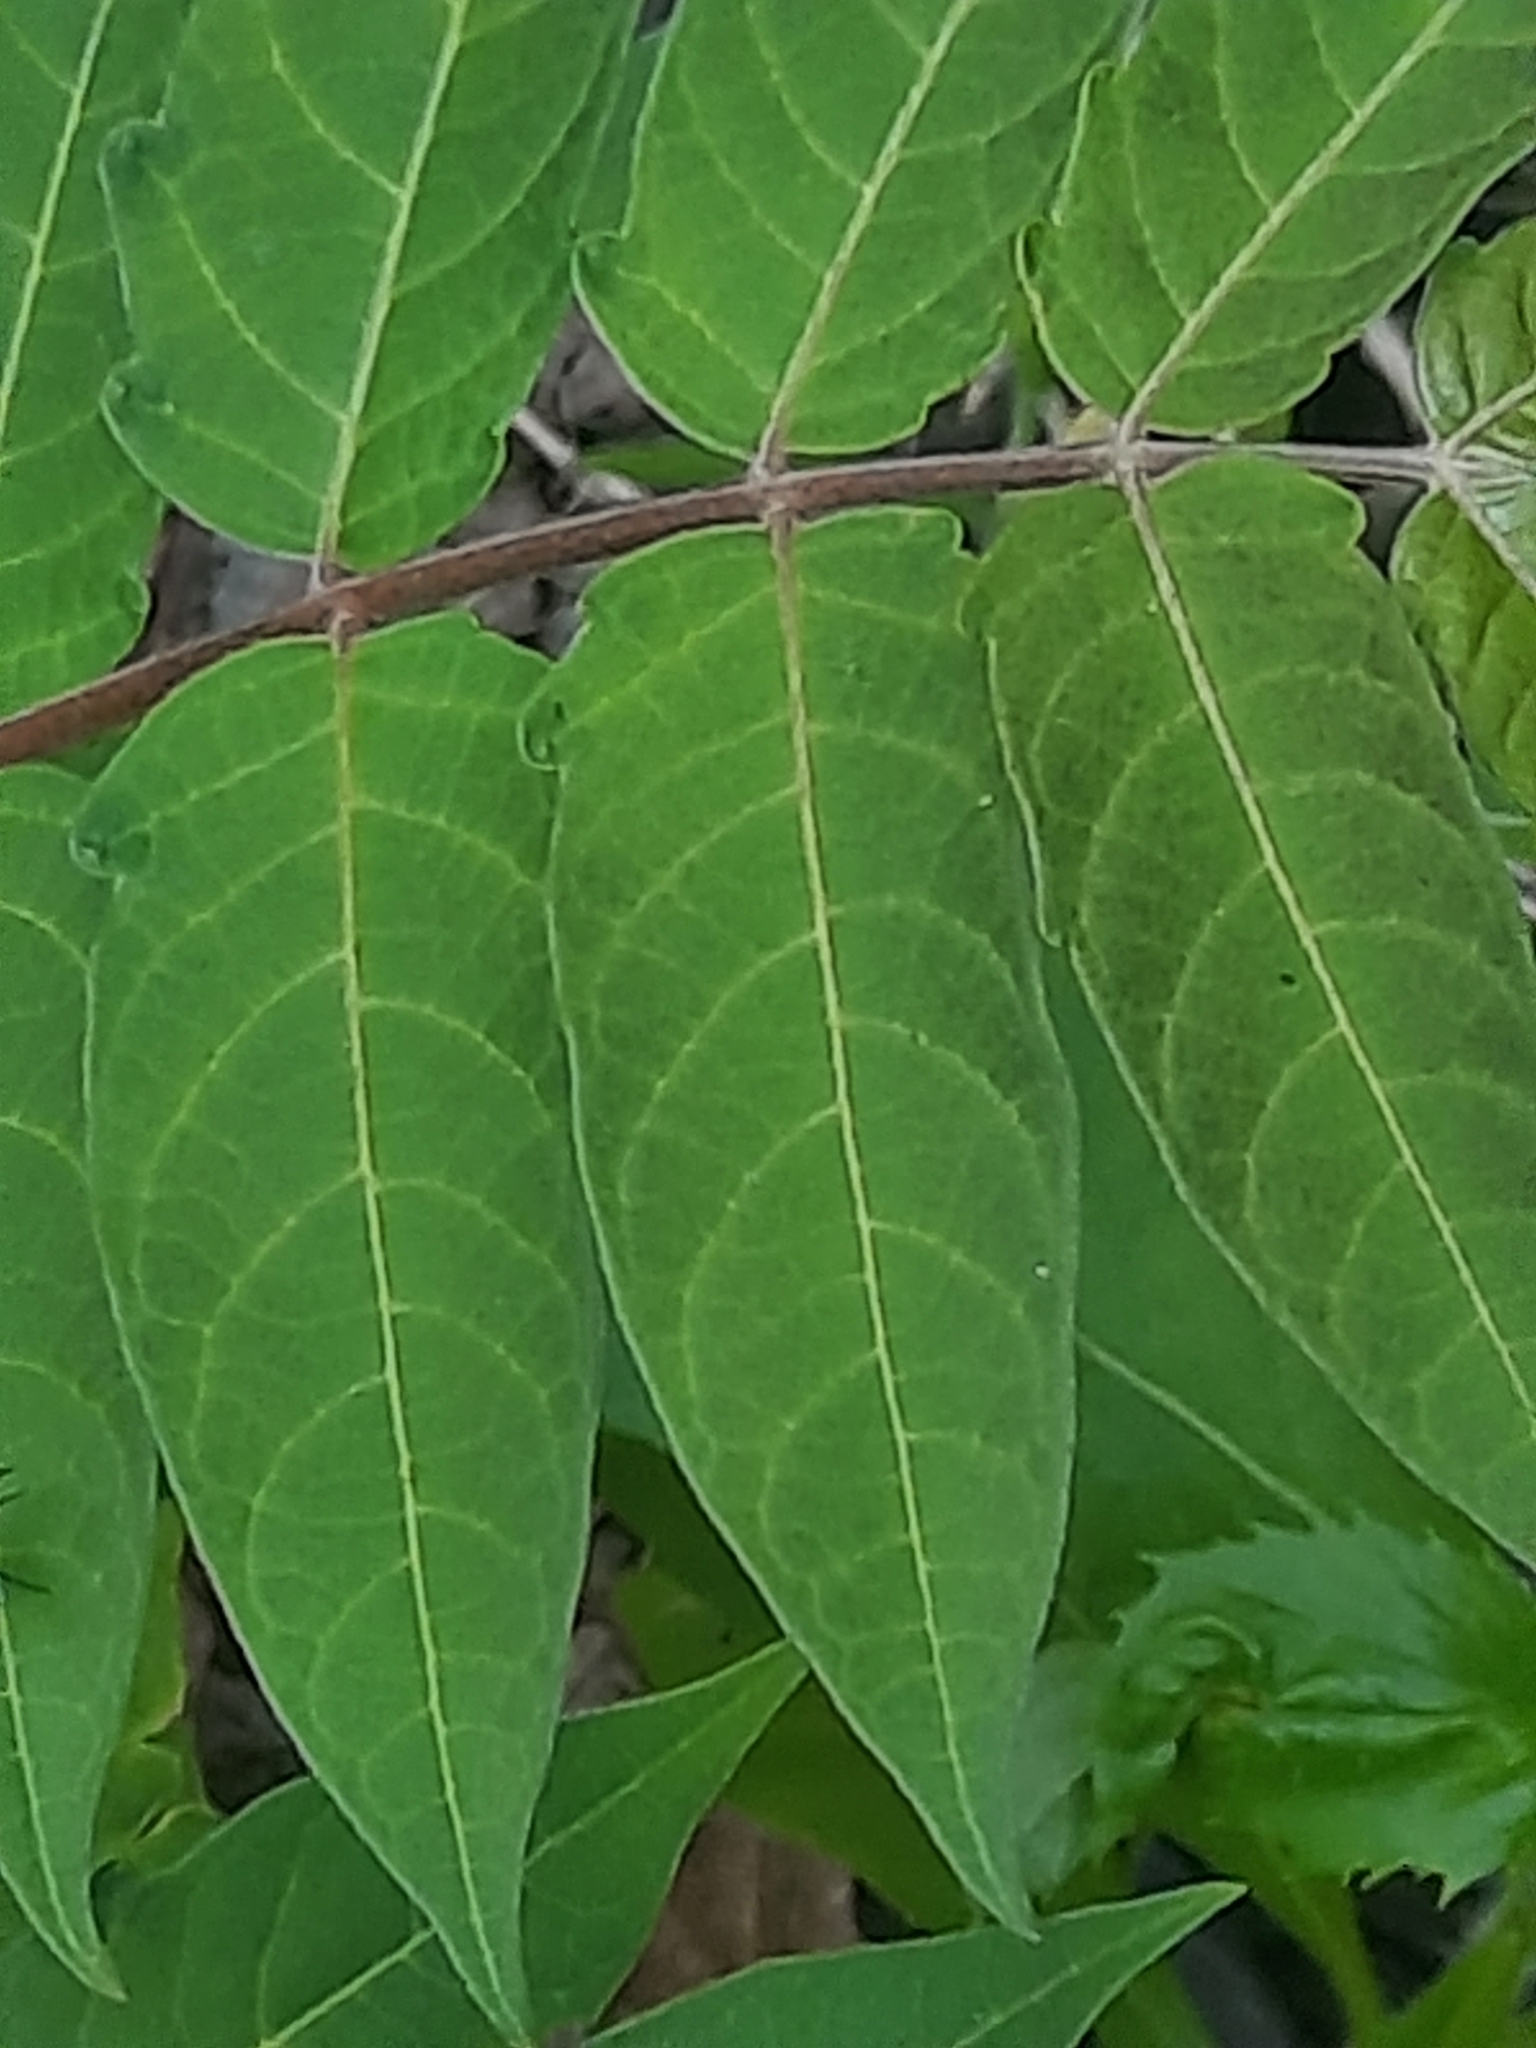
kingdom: Plantae
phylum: Tracheophyta
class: Magnoliopsida
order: Sapindales
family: Simaroubaceae
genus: Ailanthus
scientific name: Ailanthus altissima
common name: Tree-of-heaven
